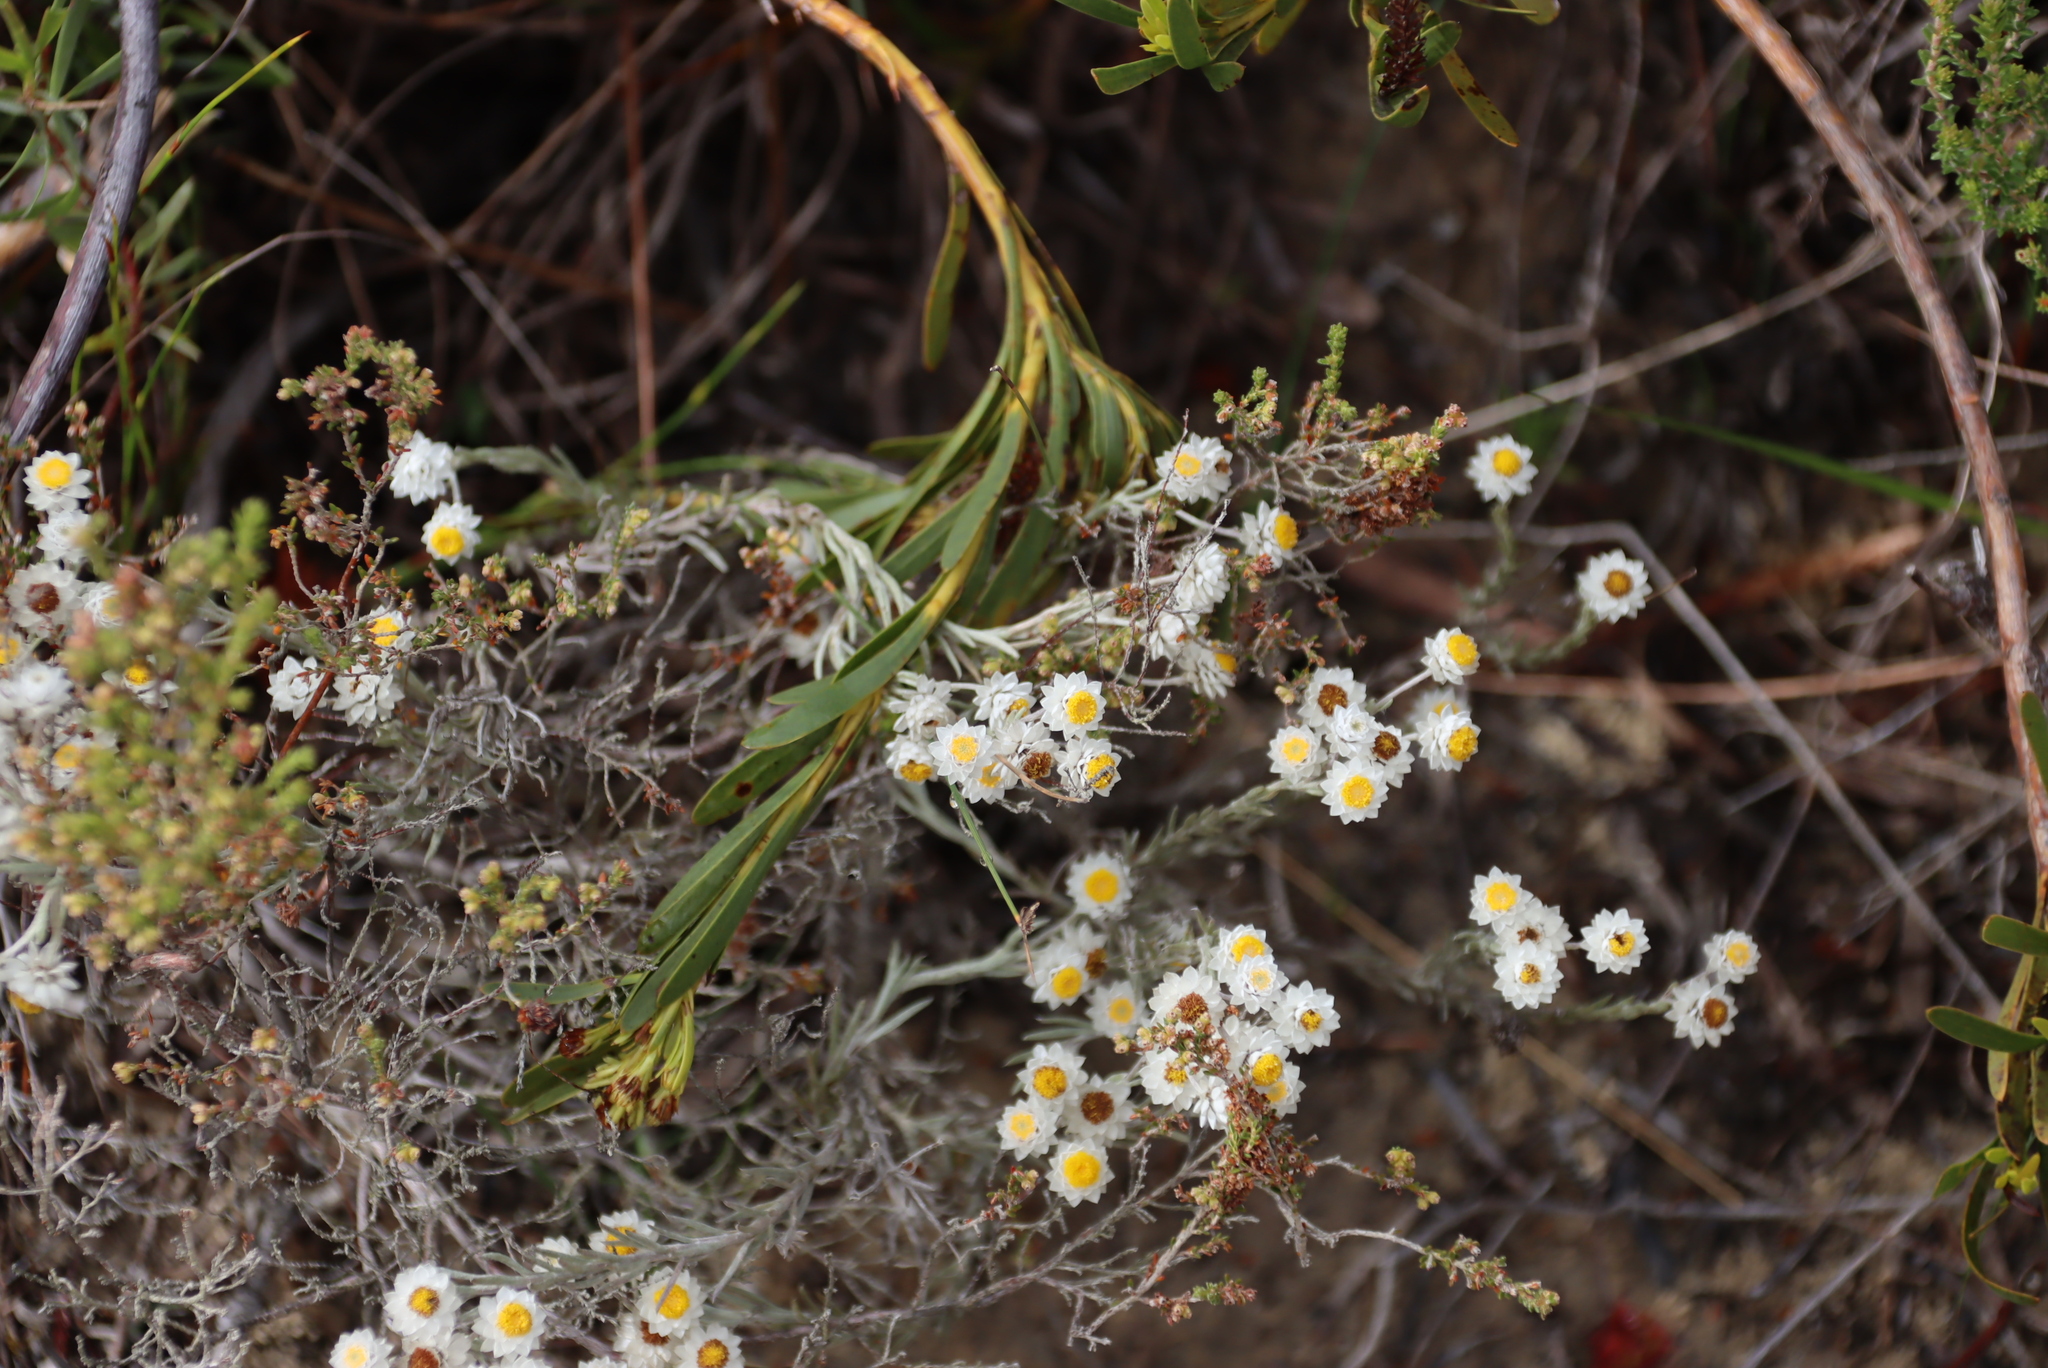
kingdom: Plantae
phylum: Tracheophyta
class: Magnoliopsida
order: Asterales
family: Asteraceae
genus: Achyranthemum
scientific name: Achyranthemum paniculatum
